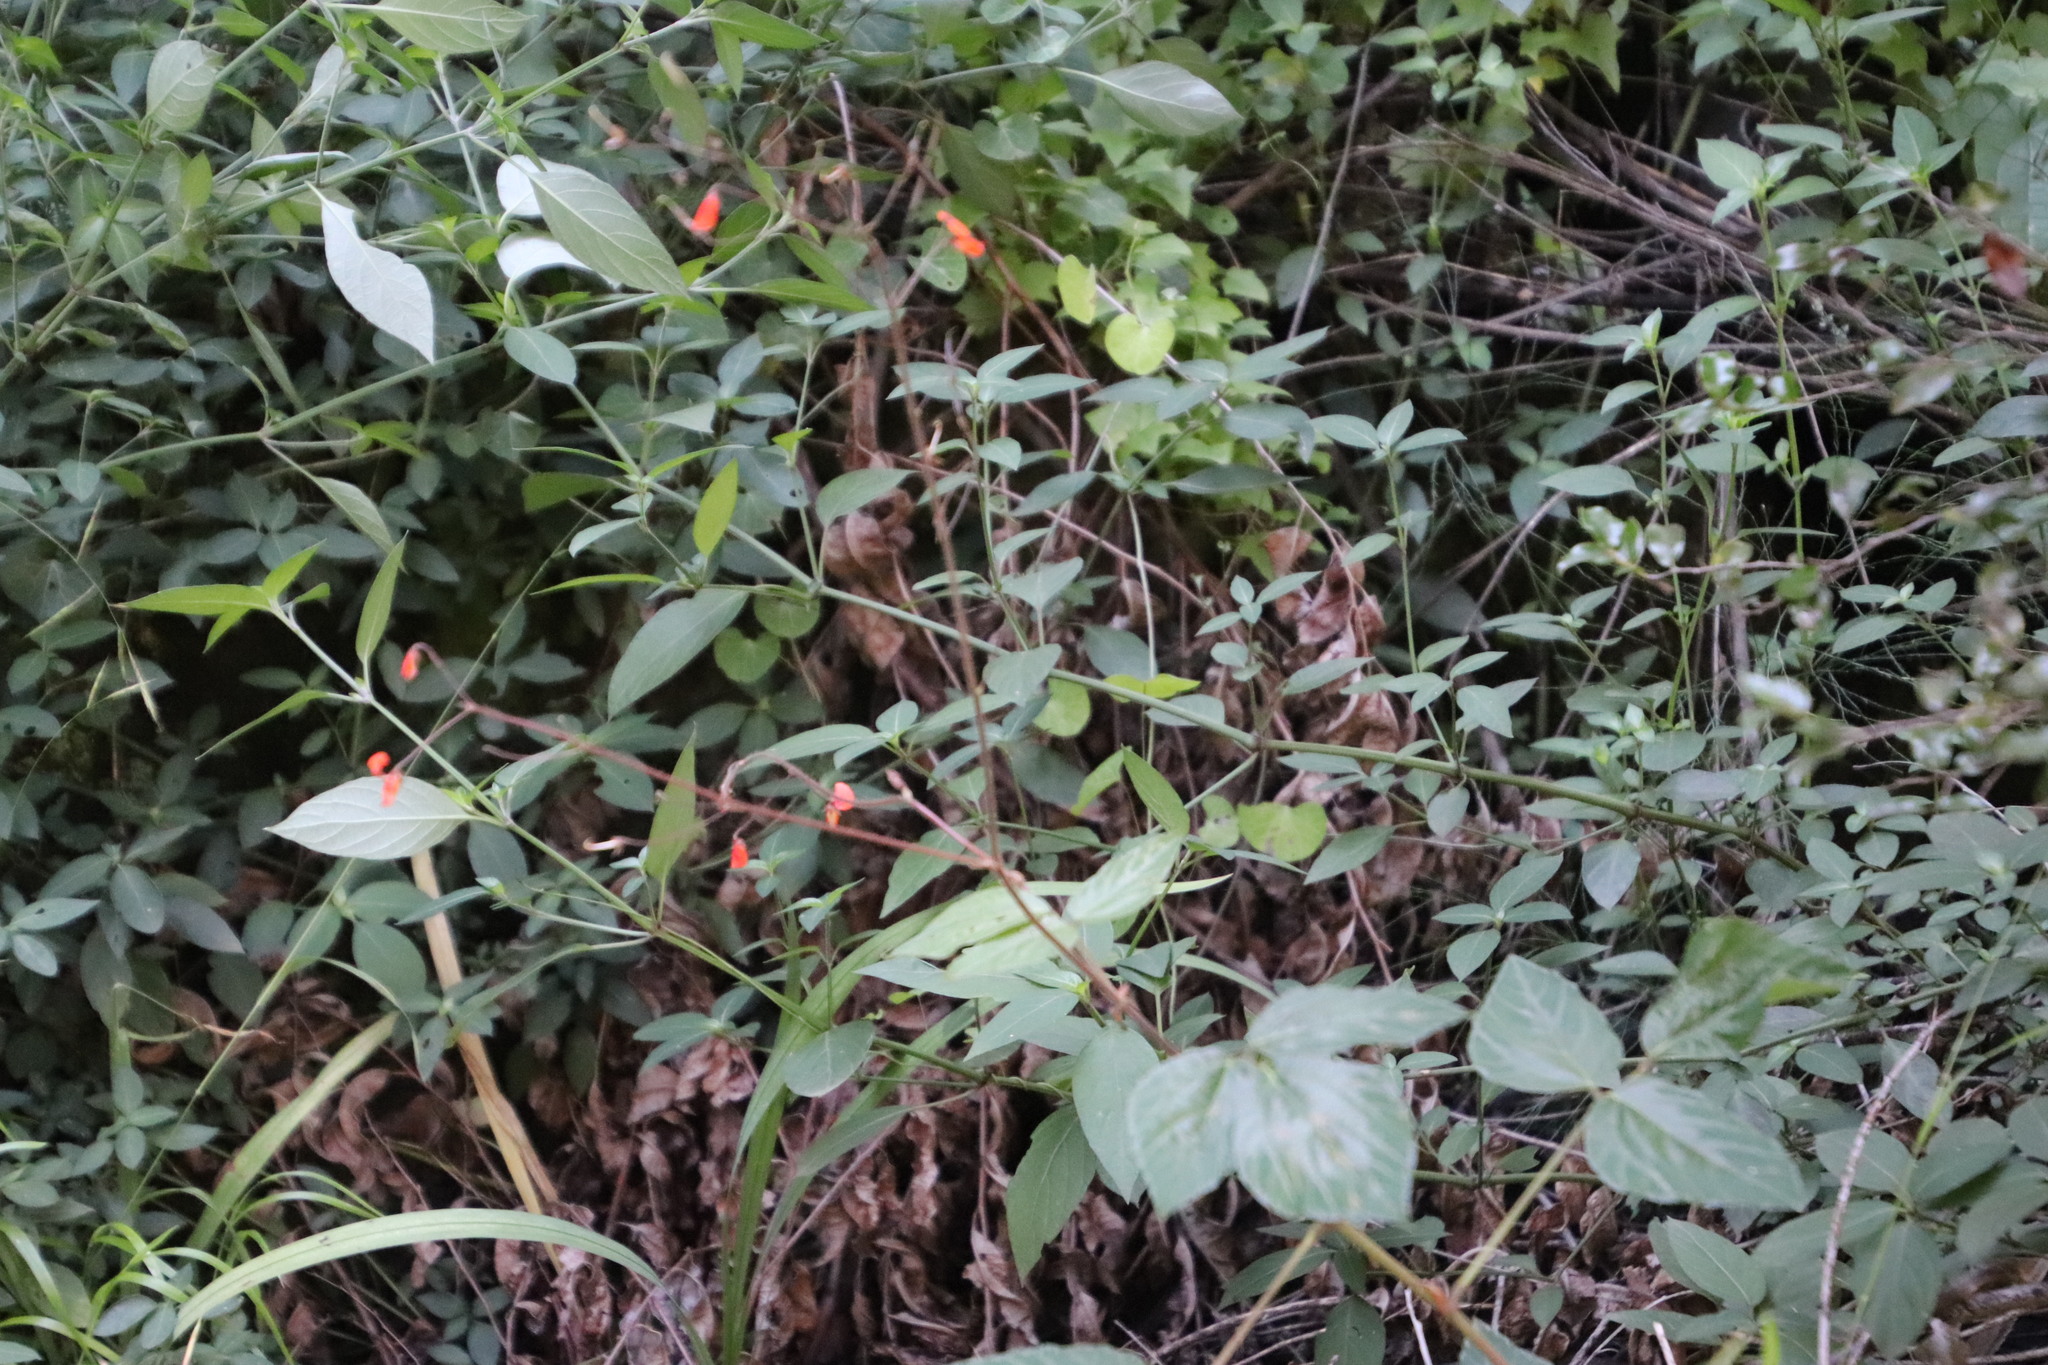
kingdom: Plantae
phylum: Tracheophyta
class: Magnoliopsida
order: Fabales
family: Fabaceae
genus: Hylodesmum
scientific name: Hylodesmum repandum
